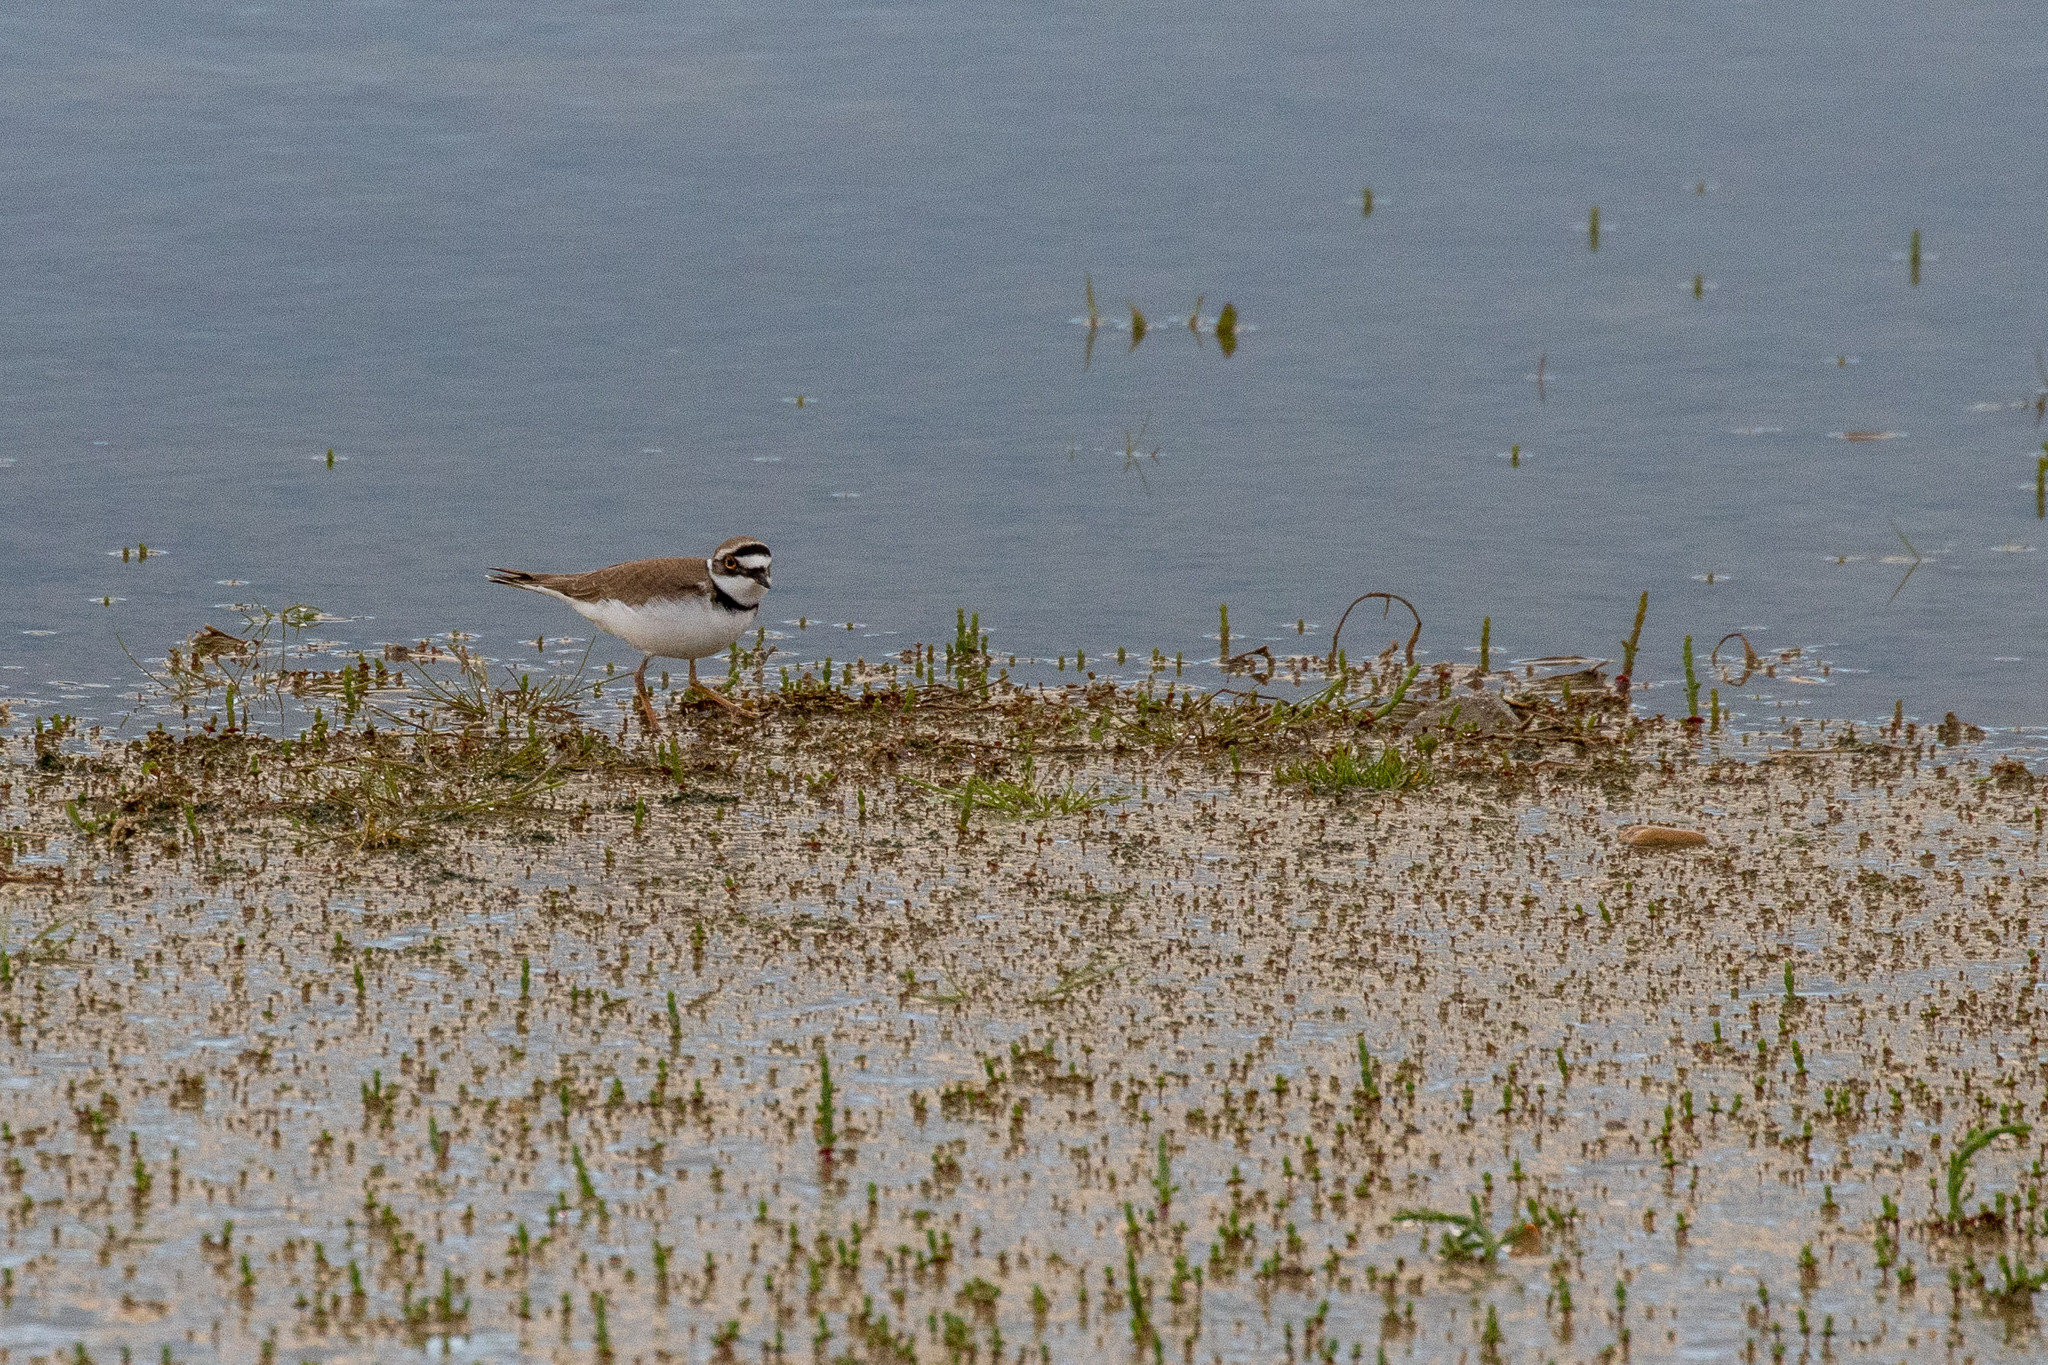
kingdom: Animalia
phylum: Chordata
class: Aves
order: Charadriiformes
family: Charadriidae
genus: Charadrius
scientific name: Charadrius dubius
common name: Little ringed plover
